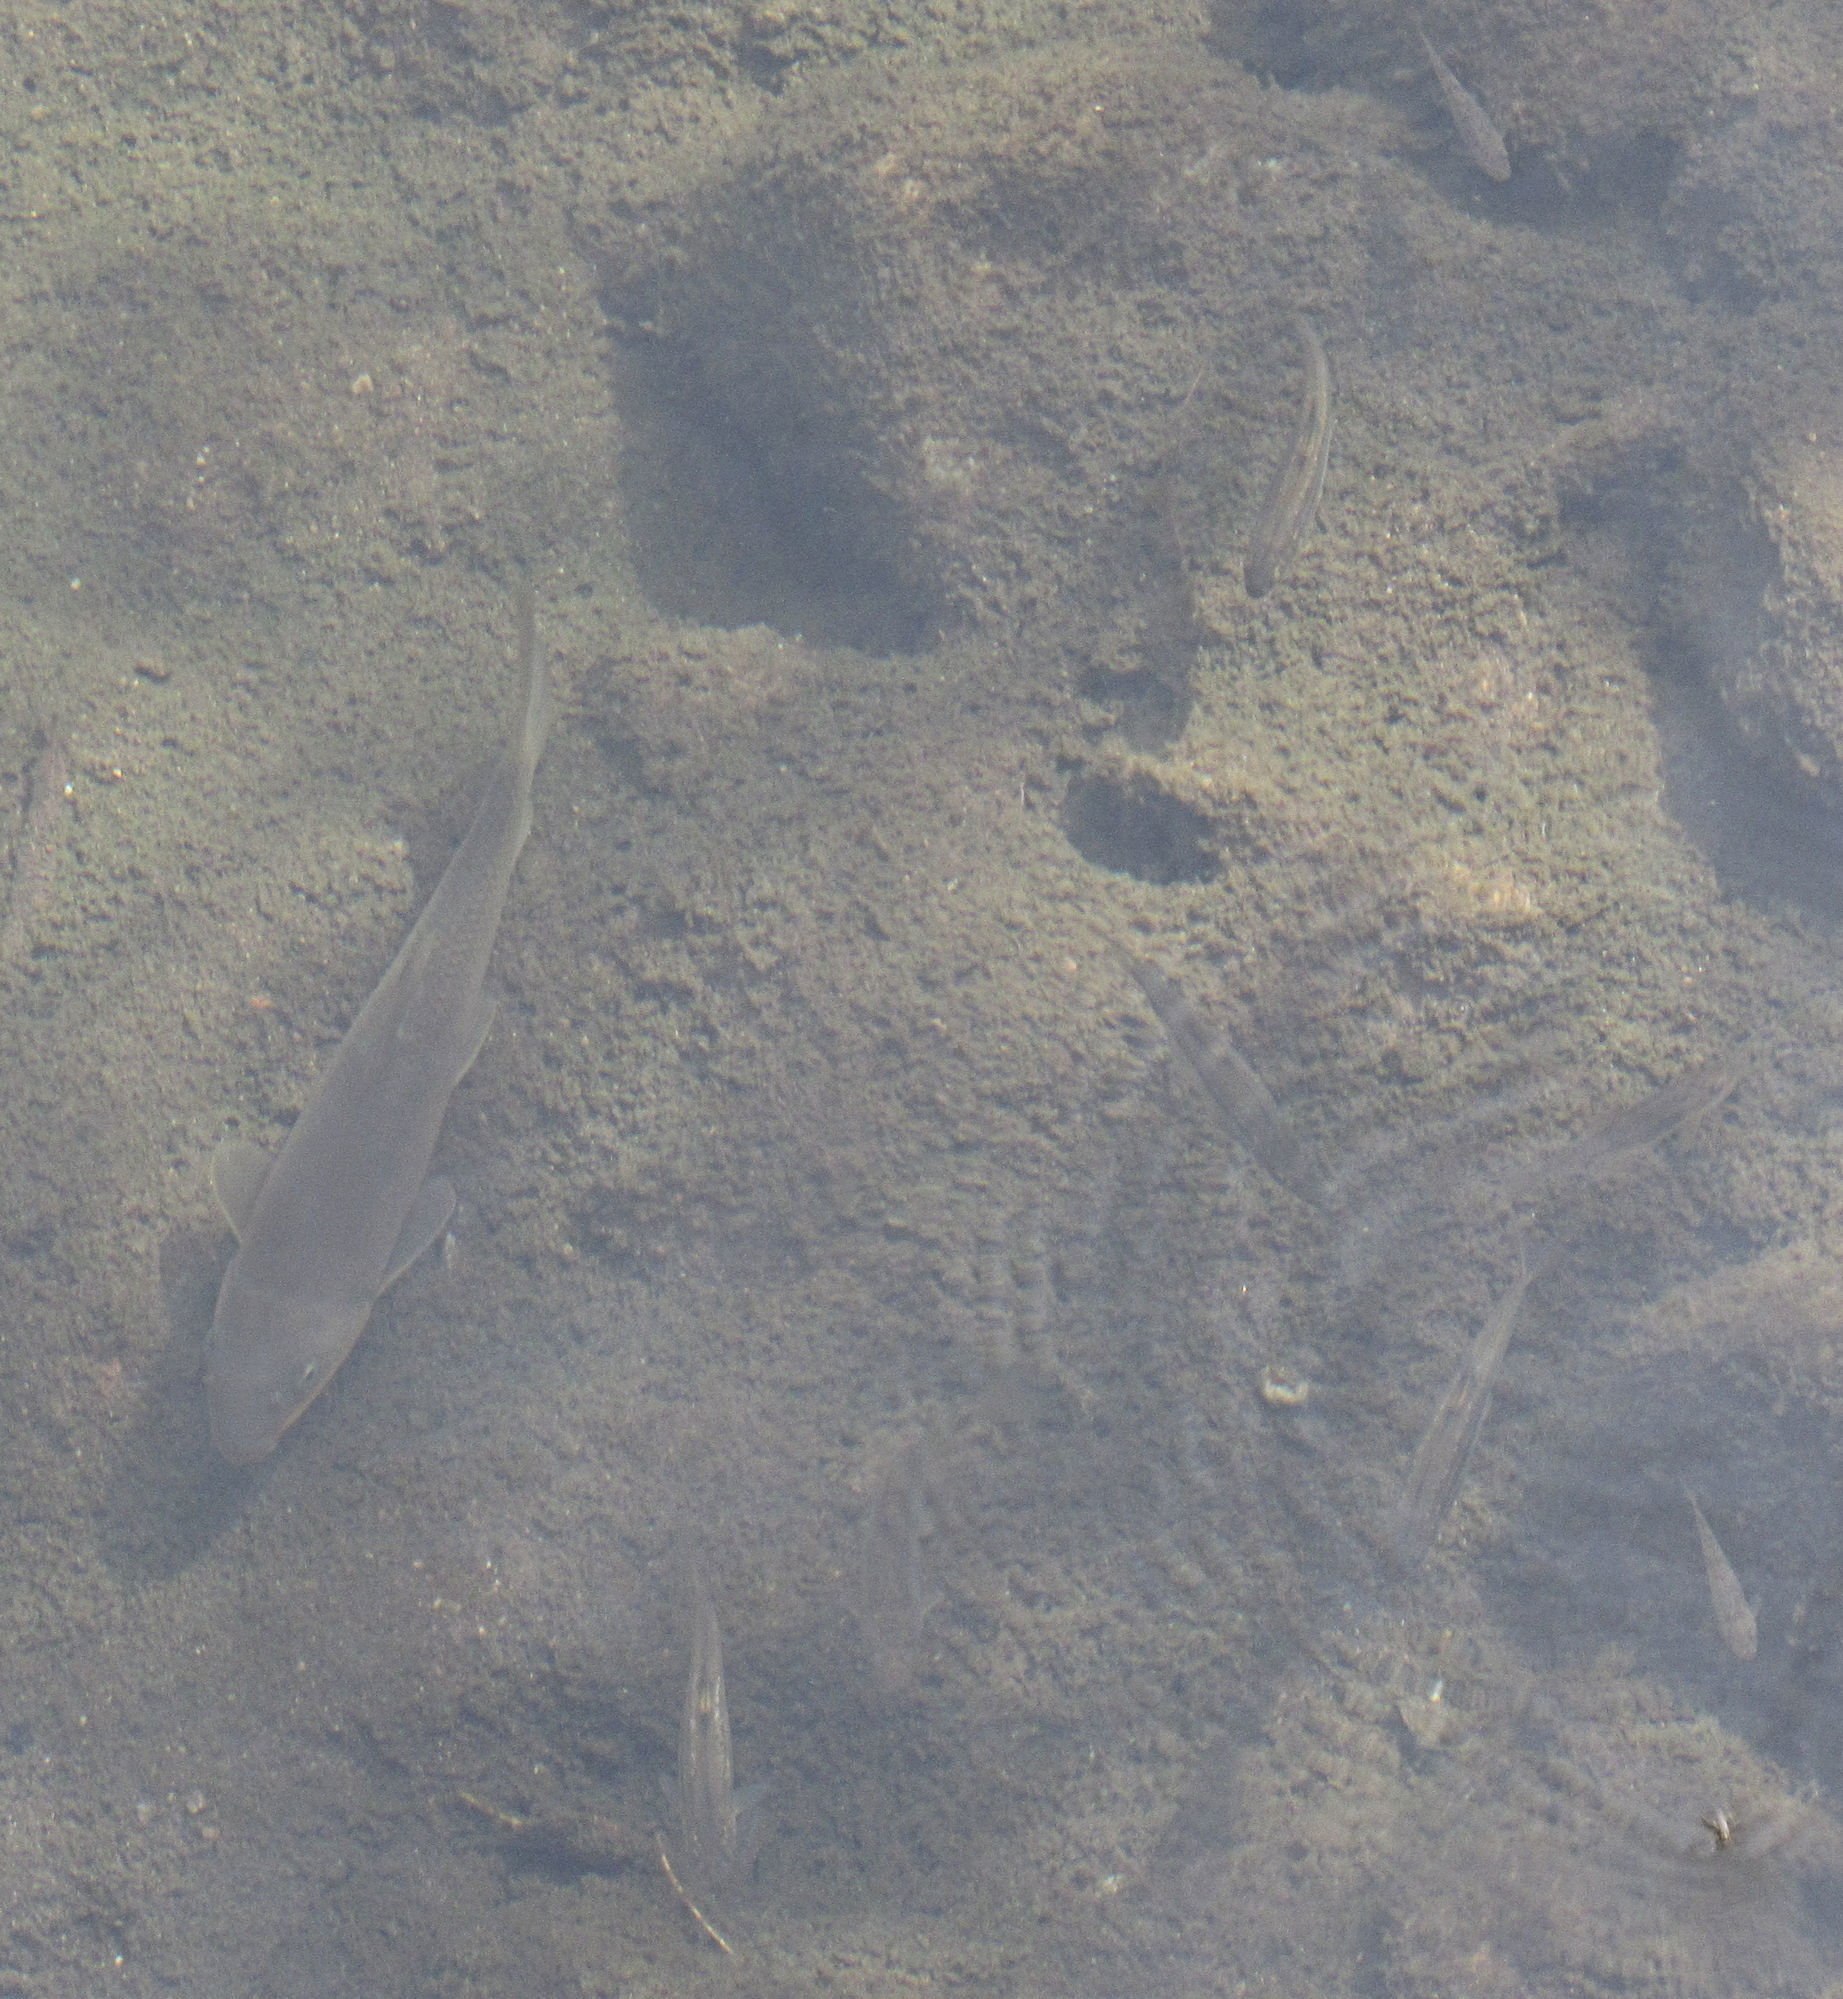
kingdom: Animalia
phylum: Chordata
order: Cypriniformes
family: Catostomidae
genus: Catostomus
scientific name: Catostomus insignis
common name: Sonora sucker
